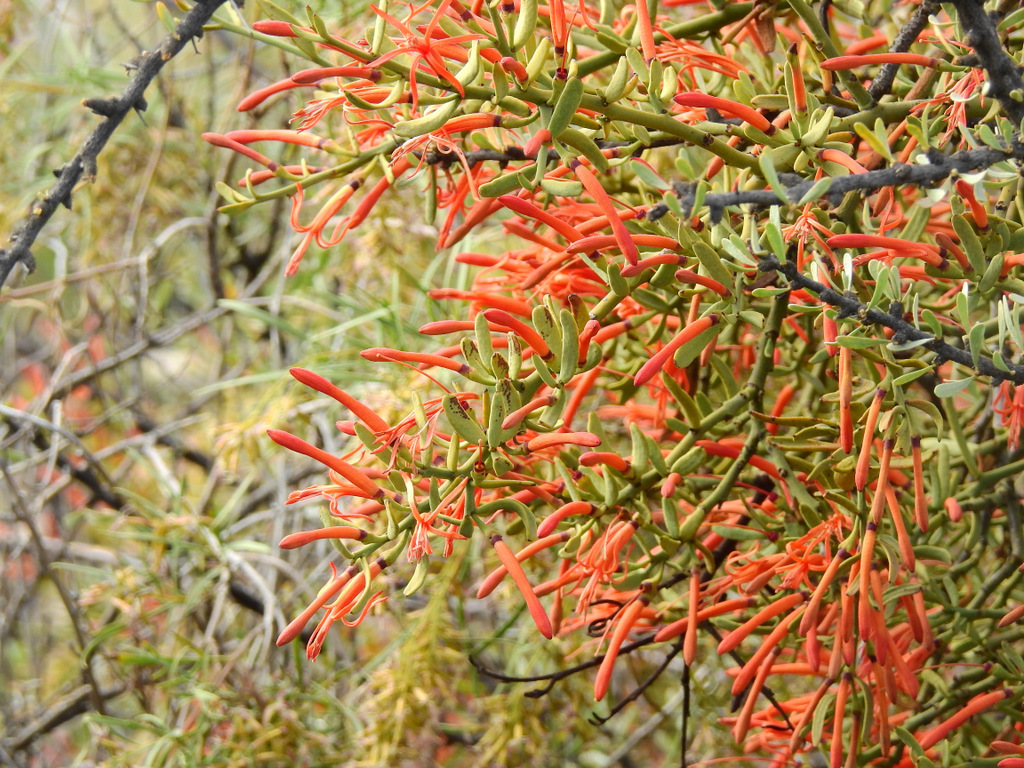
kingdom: Plantae
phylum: Tracheophyta
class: Magnoliopsida
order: Santalales
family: Loranthaceae
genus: Ligaria
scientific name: Ligaria cuneifolia
